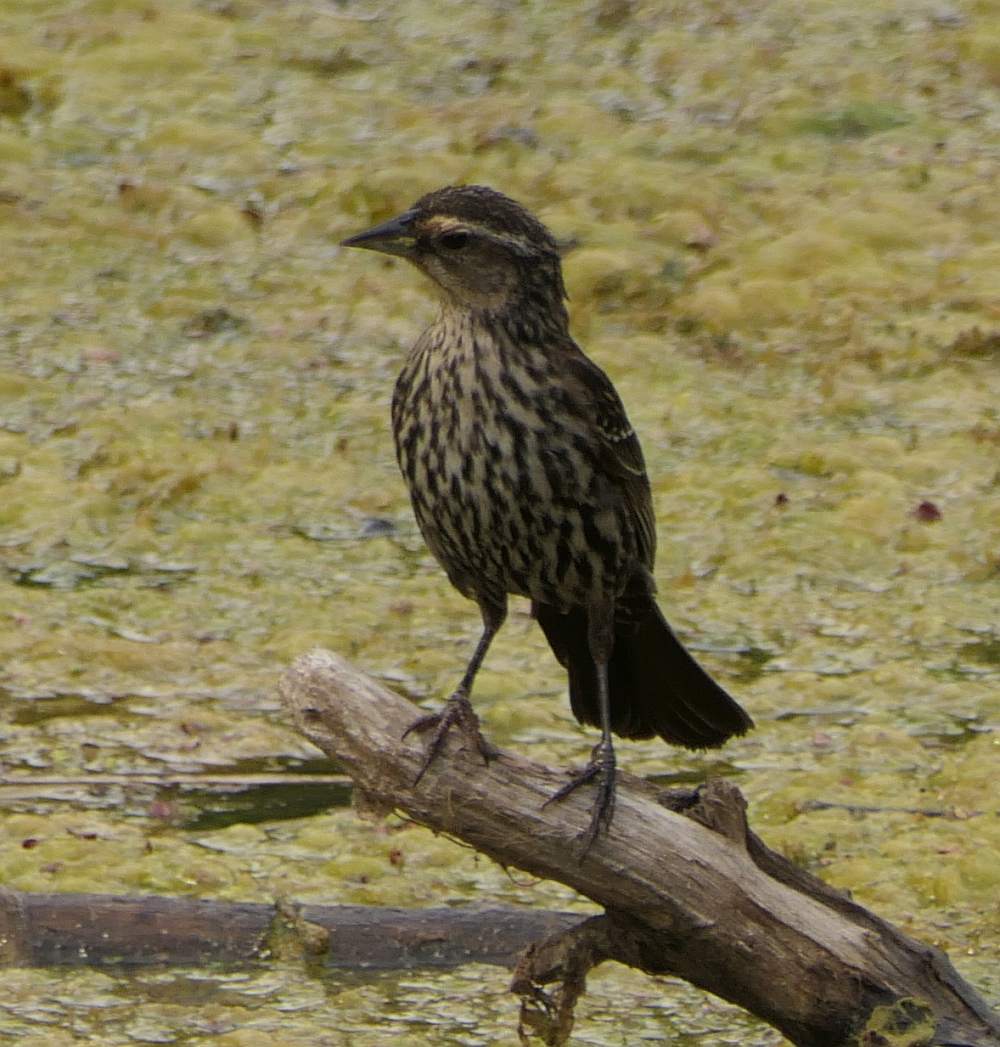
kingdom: Animalia
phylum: Chordata
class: Aves
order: Passeriformes
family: Icteridae
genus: Agelaius
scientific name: Agelaius phoeniceus
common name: Red-winged blackbird
